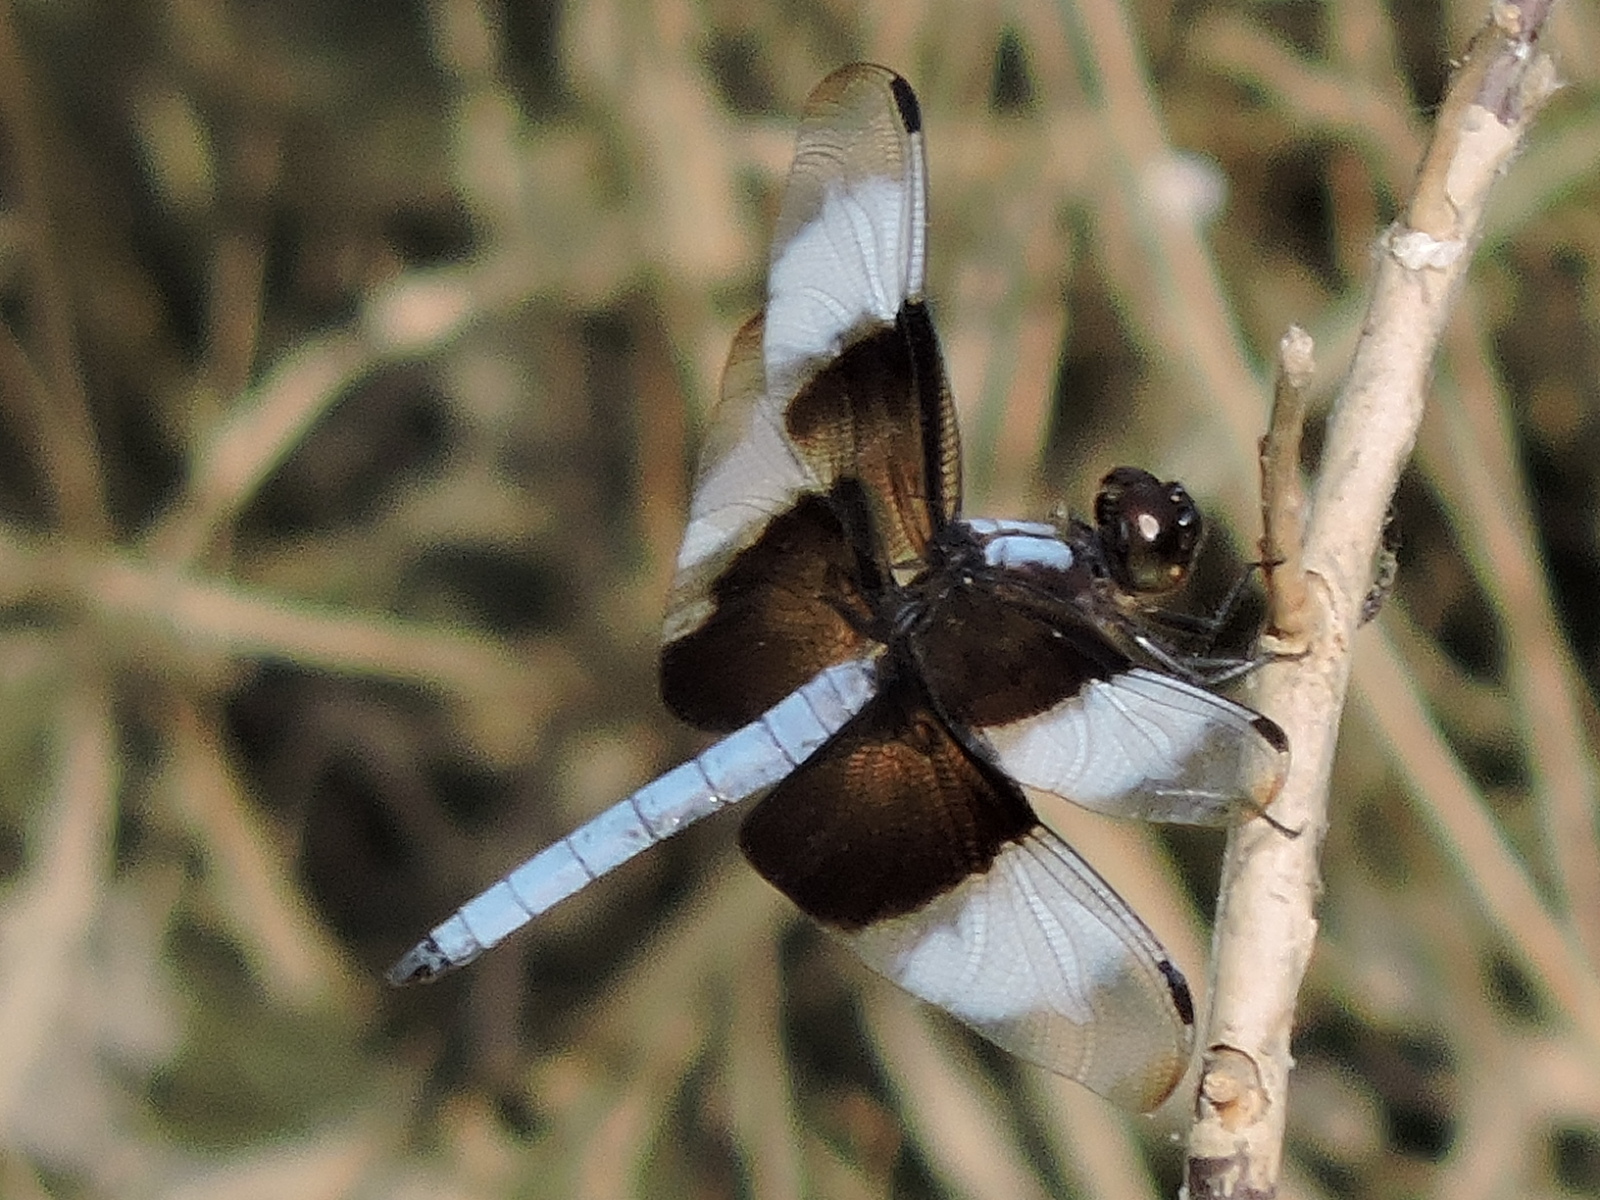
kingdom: Animalia
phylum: Arthropoda
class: Insecta
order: Odonata
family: Libellulidae
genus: Libellula
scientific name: Libellula luctuosa
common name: Widow skimmer
